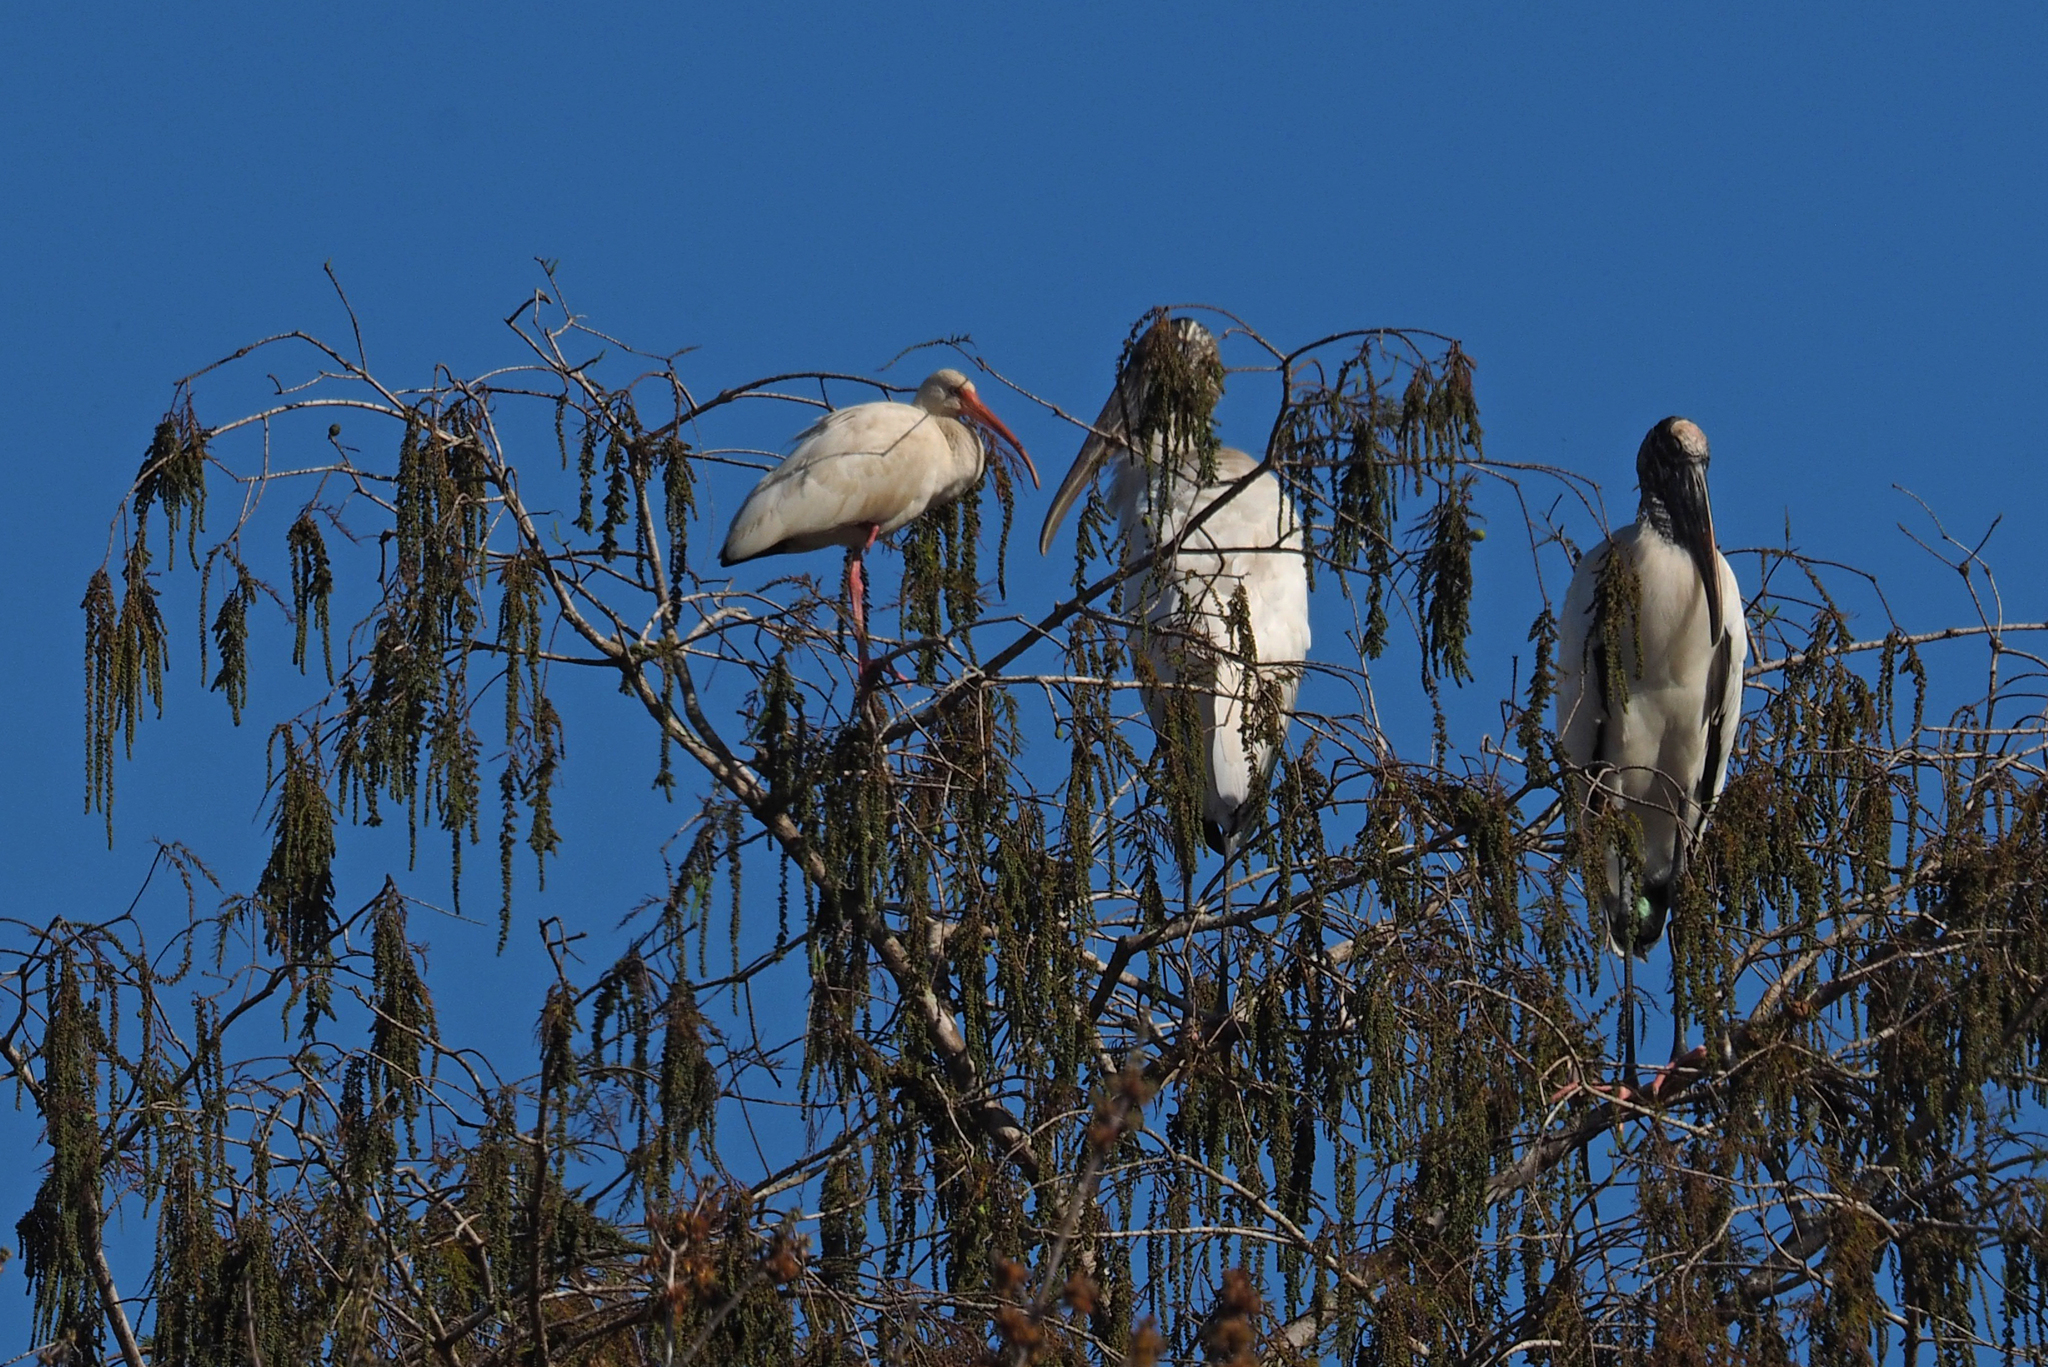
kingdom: Animalia
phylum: Chordata
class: Aves
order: Ciconiiformes
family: Ciconiidae
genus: Mycteria
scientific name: Mycteria americana
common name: Wood stork
